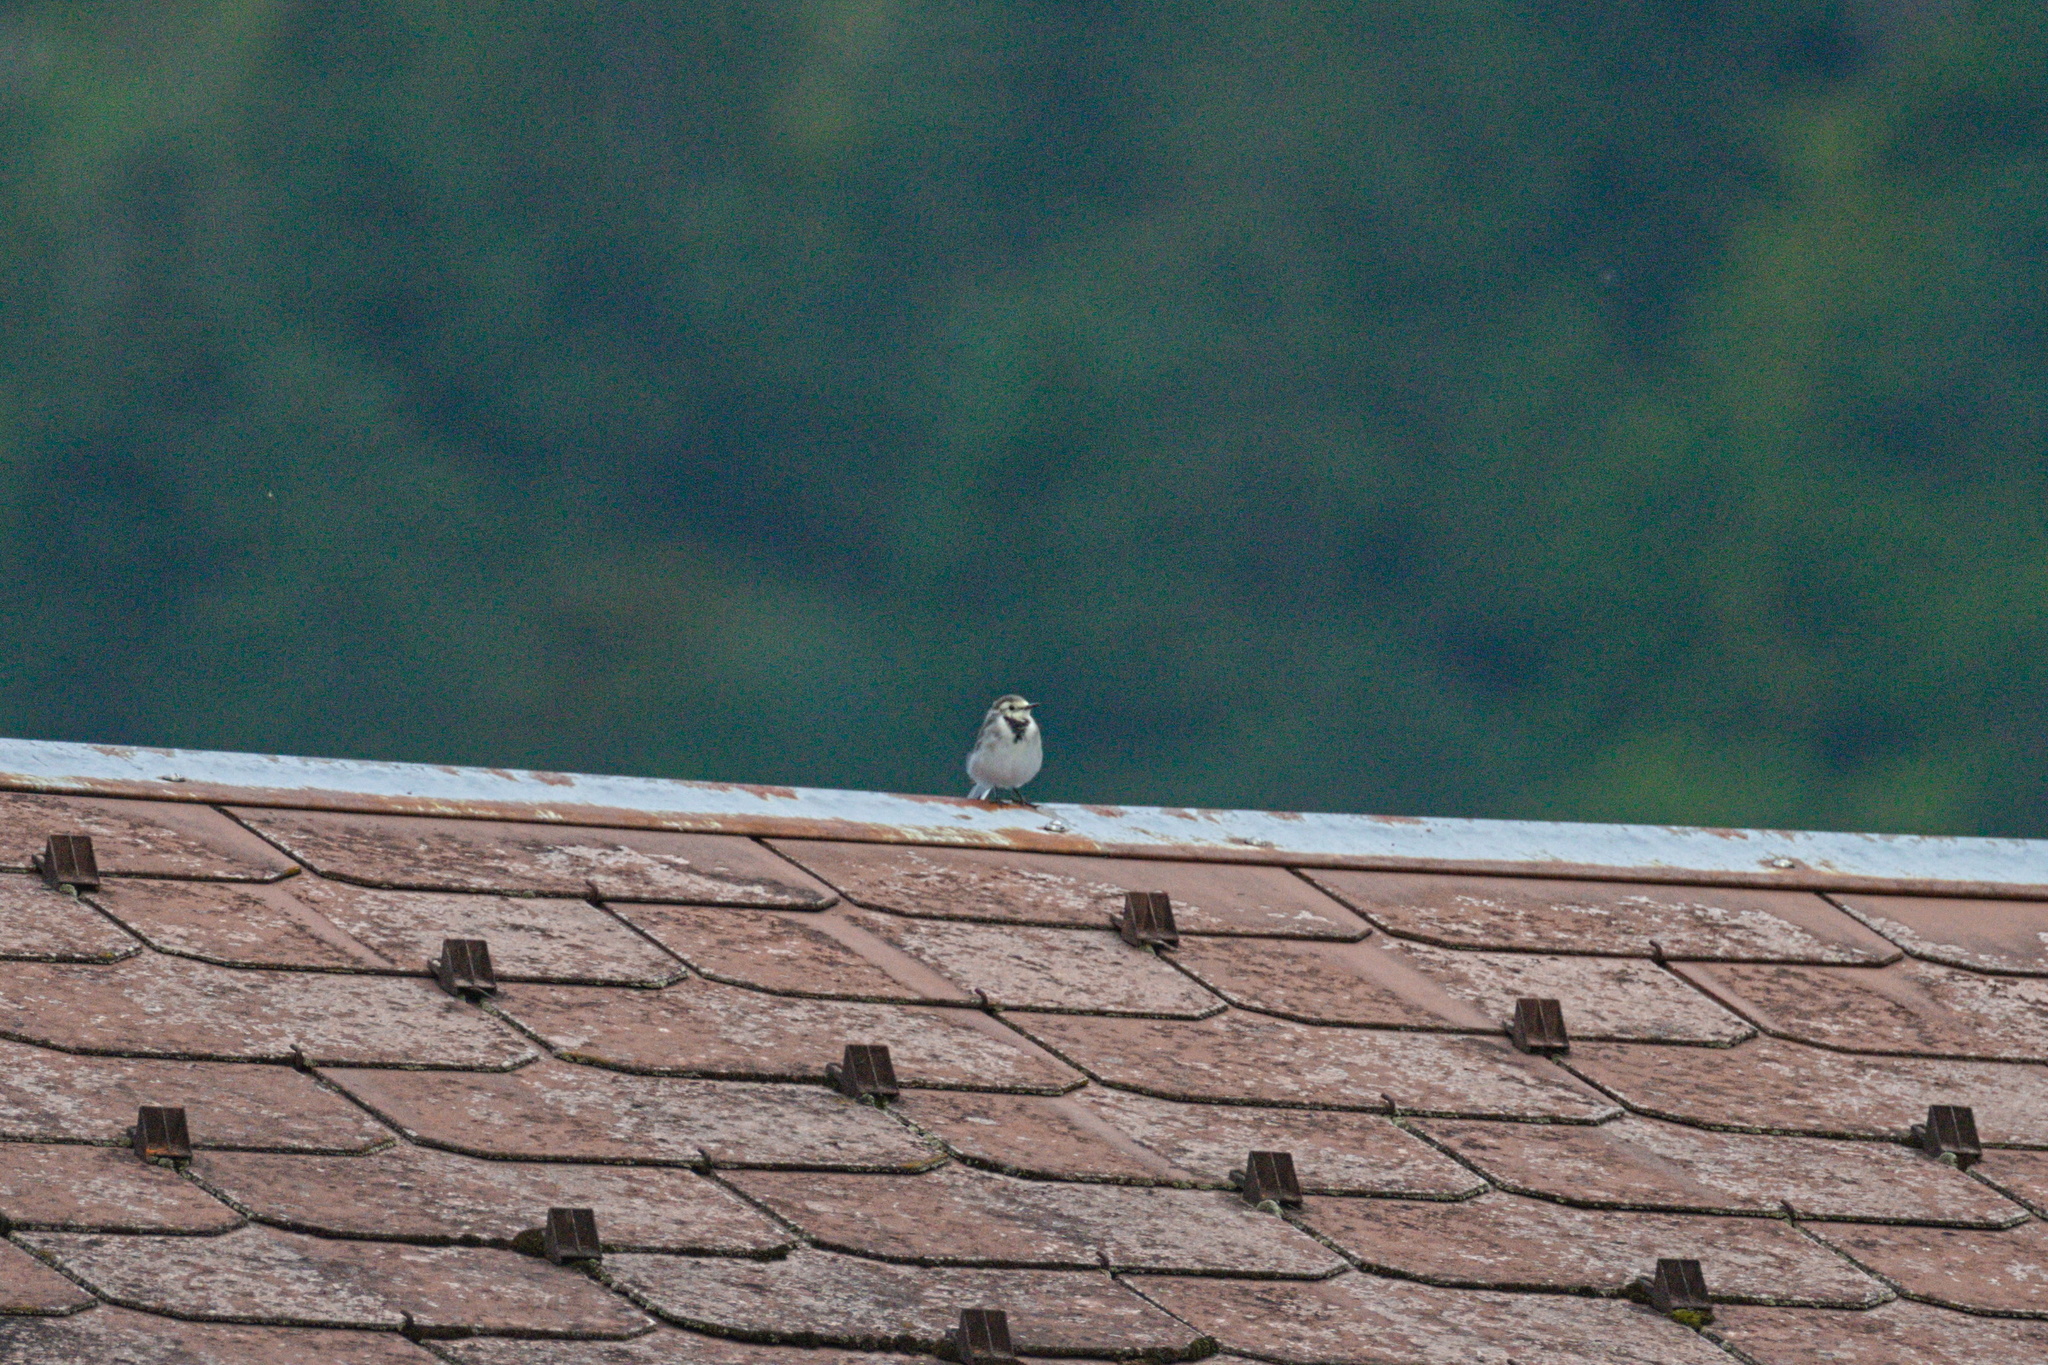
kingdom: Animalia
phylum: Chordata
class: Aves
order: Passeriformes
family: Motacillidae
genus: Motacilla
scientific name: Motacilla alba
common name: White wagtail
